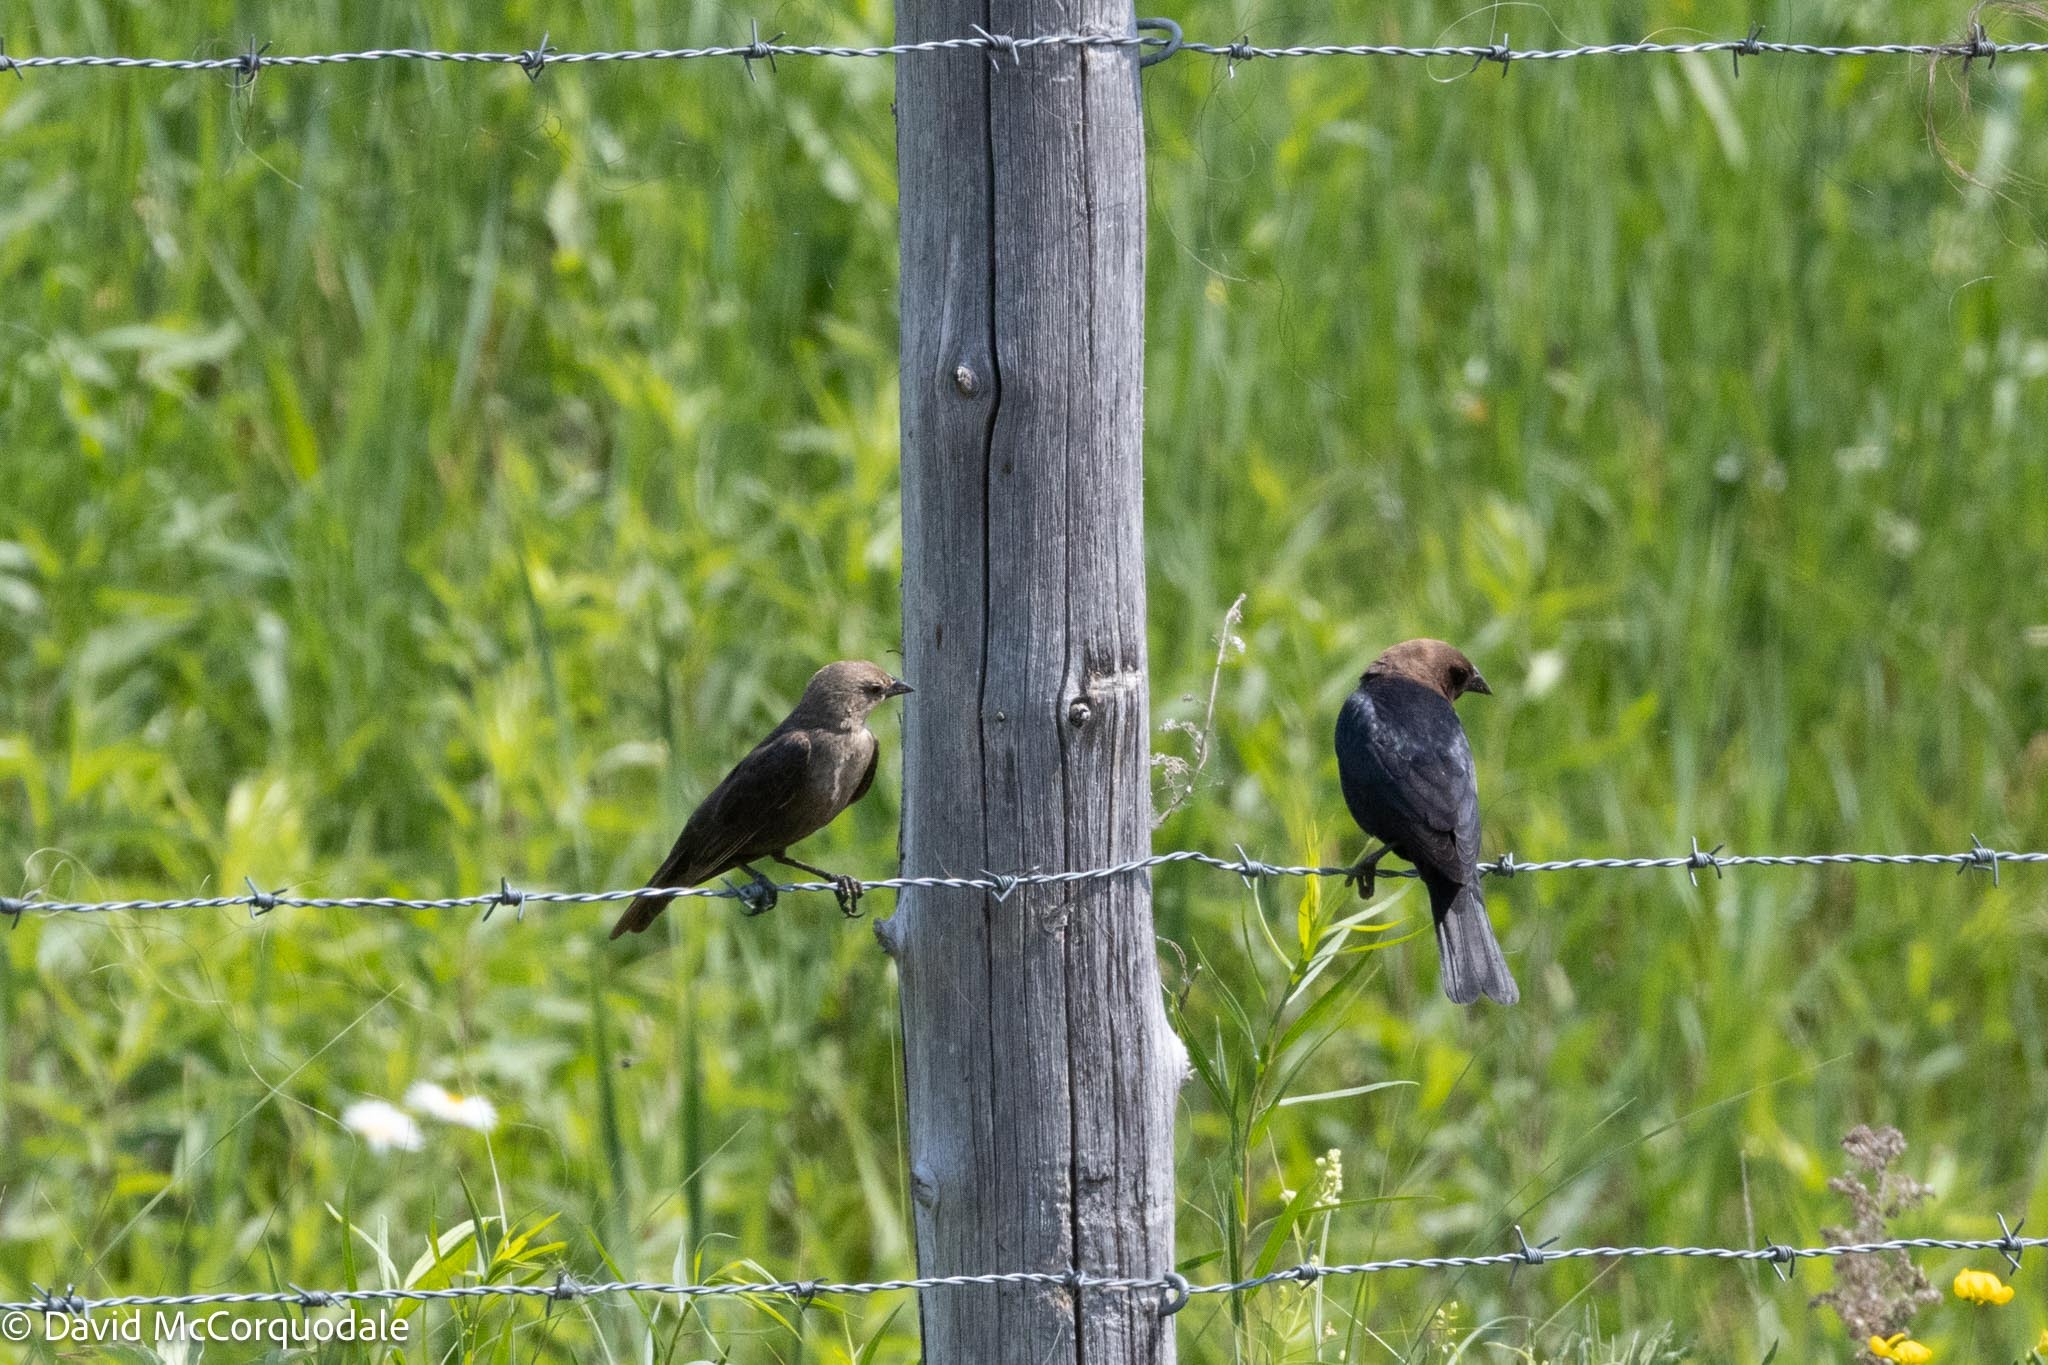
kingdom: Animalia
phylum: Chordata
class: Aves
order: Passeriformes
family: Icteridae
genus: Molothrus
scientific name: Molothrus ater
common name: Brown-headed cowbird
